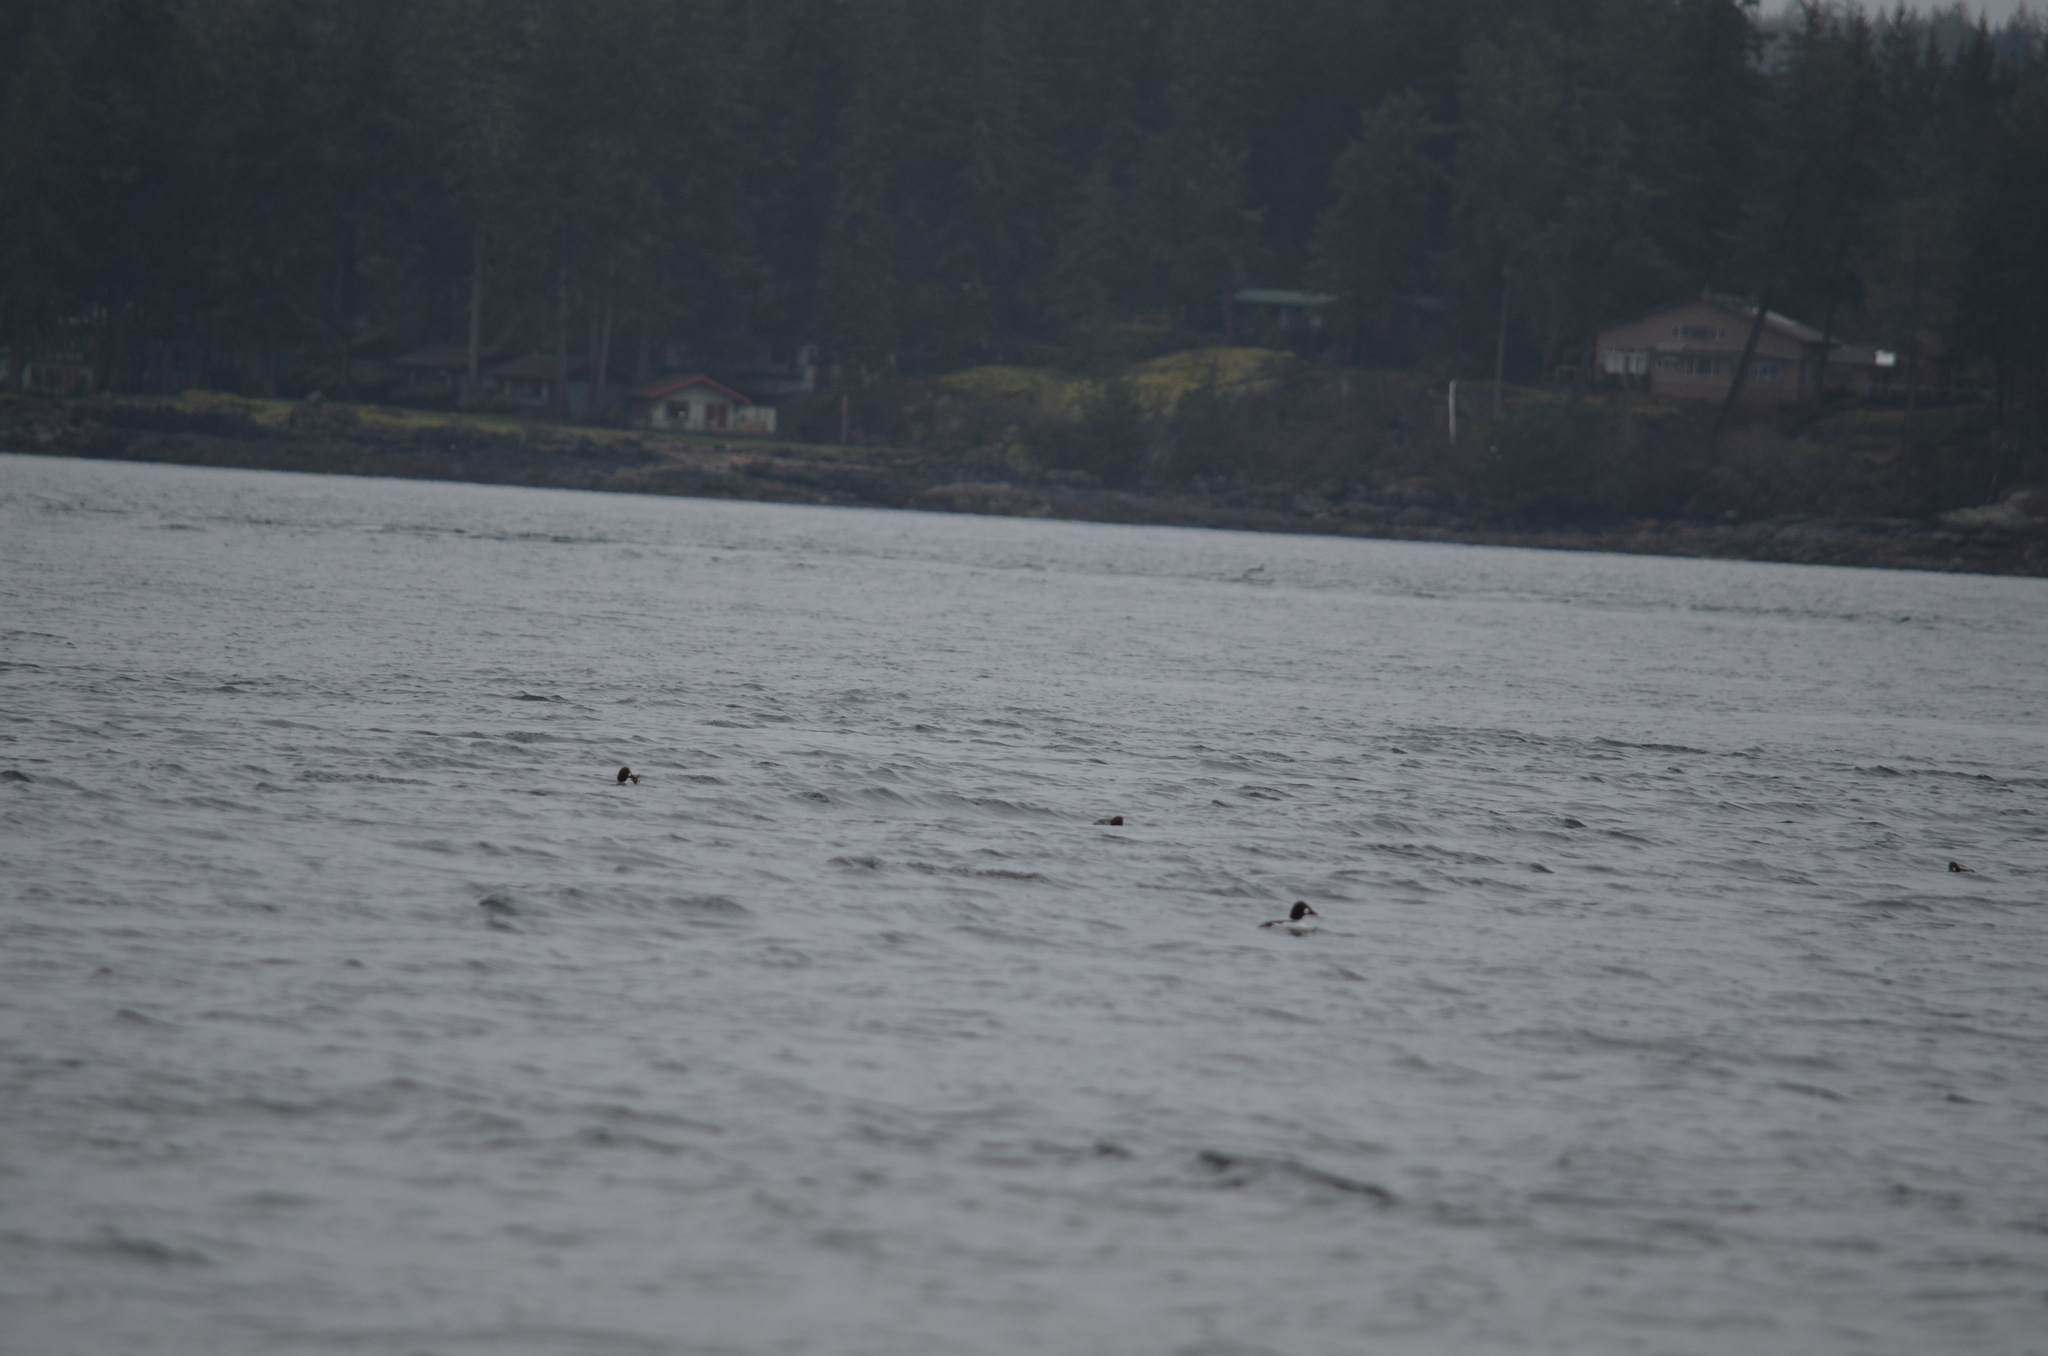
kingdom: Animalia
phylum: Chordata
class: Aves
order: Anseriformes
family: Anatidae
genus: Bucephala
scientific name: Bucephala clangula
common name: Common goldeneye
